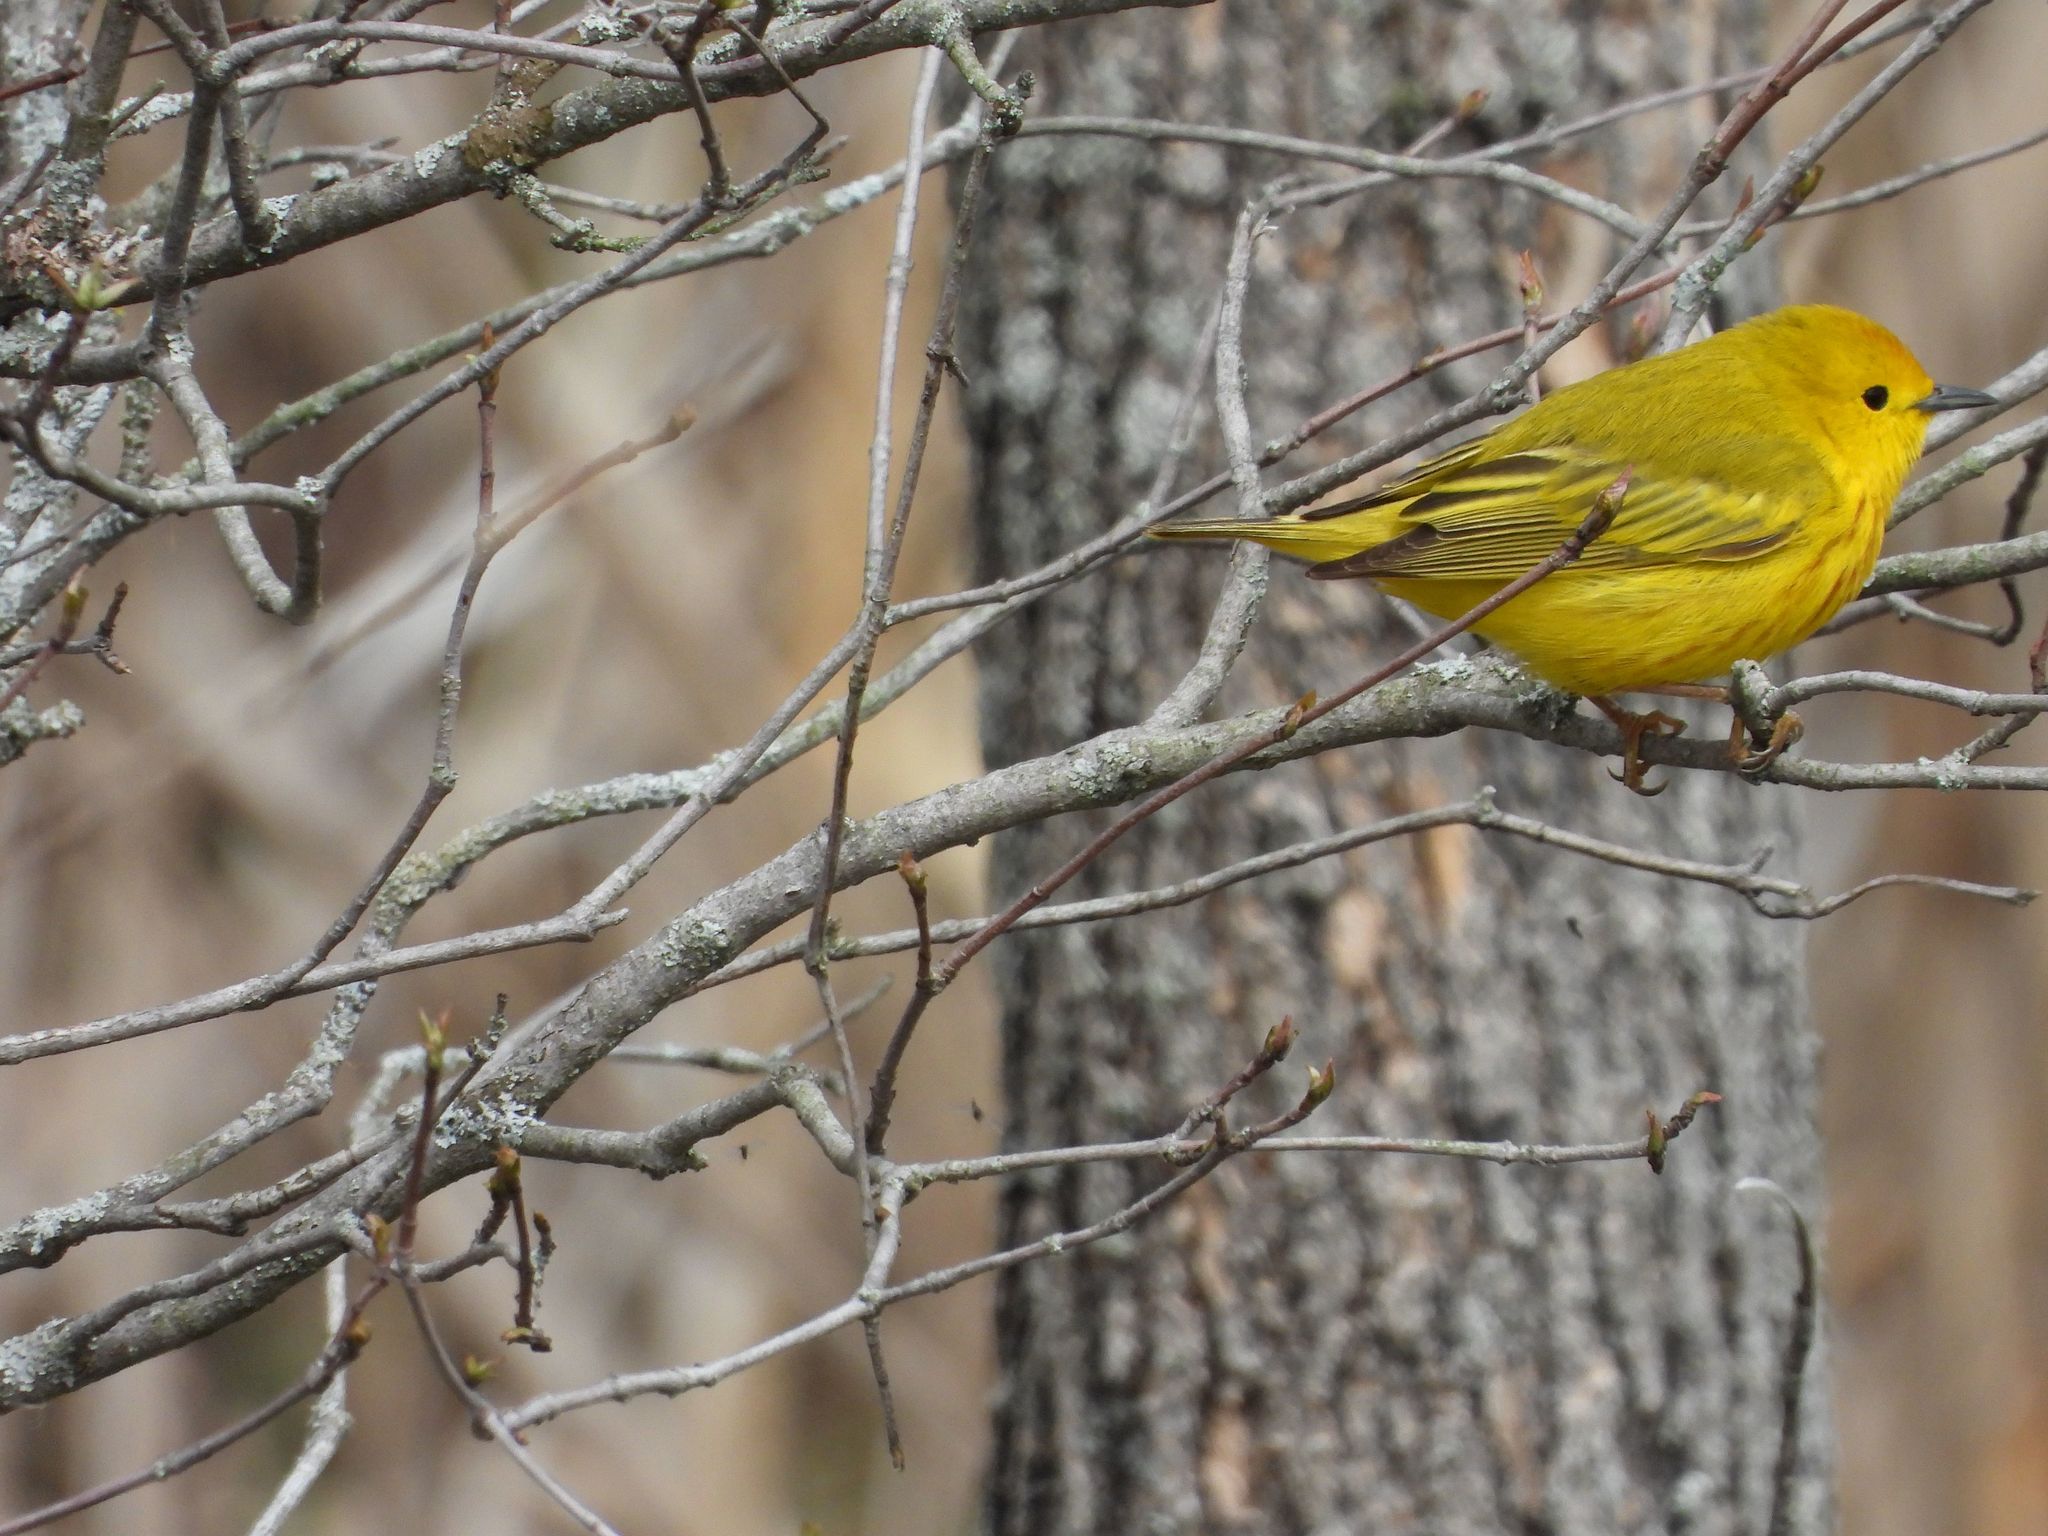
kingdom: Animalia
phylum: Chordata
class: Aves
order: Passeriformes
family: Parulidae
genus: Setophaga
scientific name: Setophaga petechia
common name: Yellow warbler
